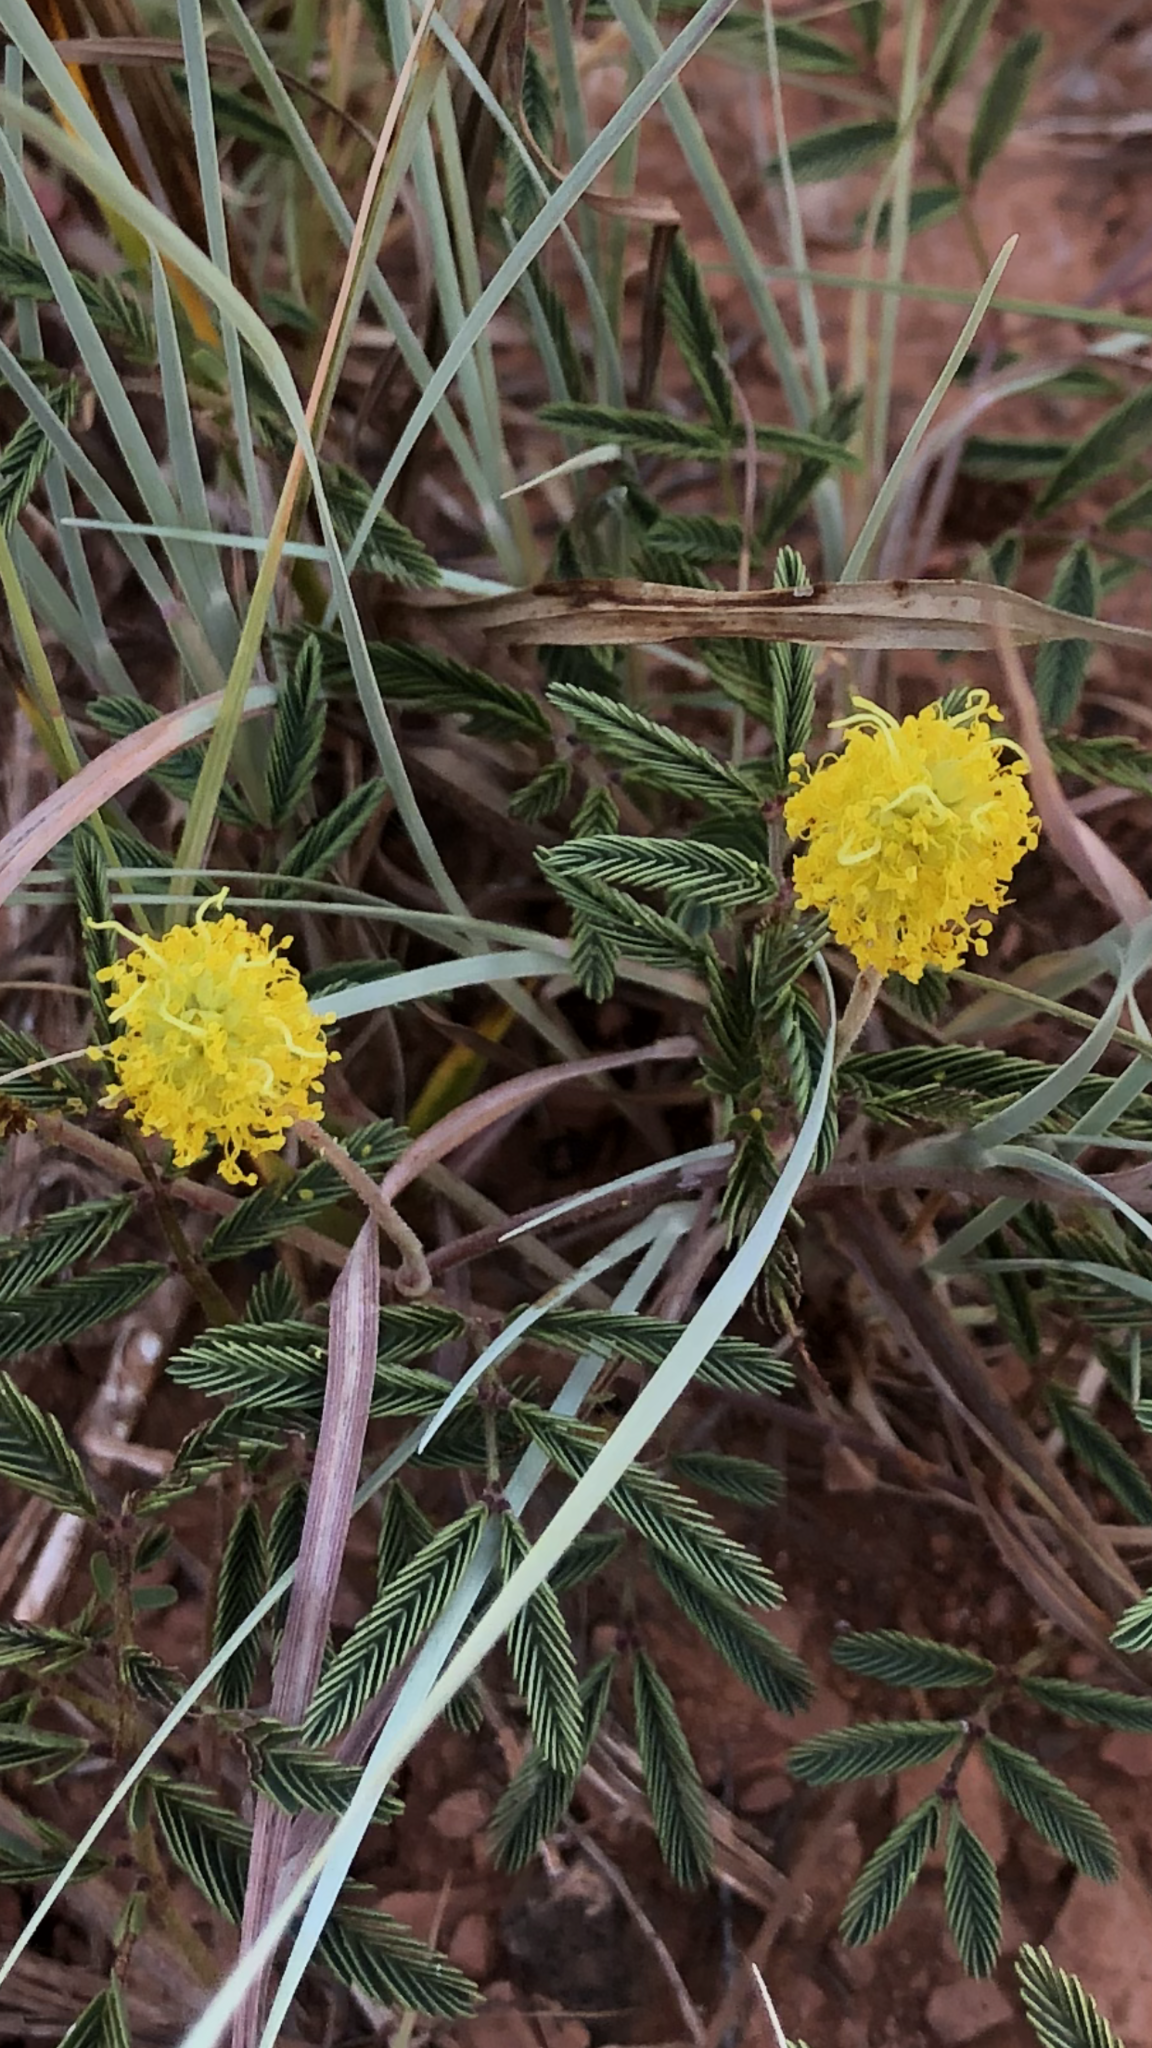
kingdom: Plantae
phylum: Tracheophyta
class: Magnoliopsida
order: Fabales
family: Fabaceae
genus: Neptunia
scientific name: Neptunia lutea
